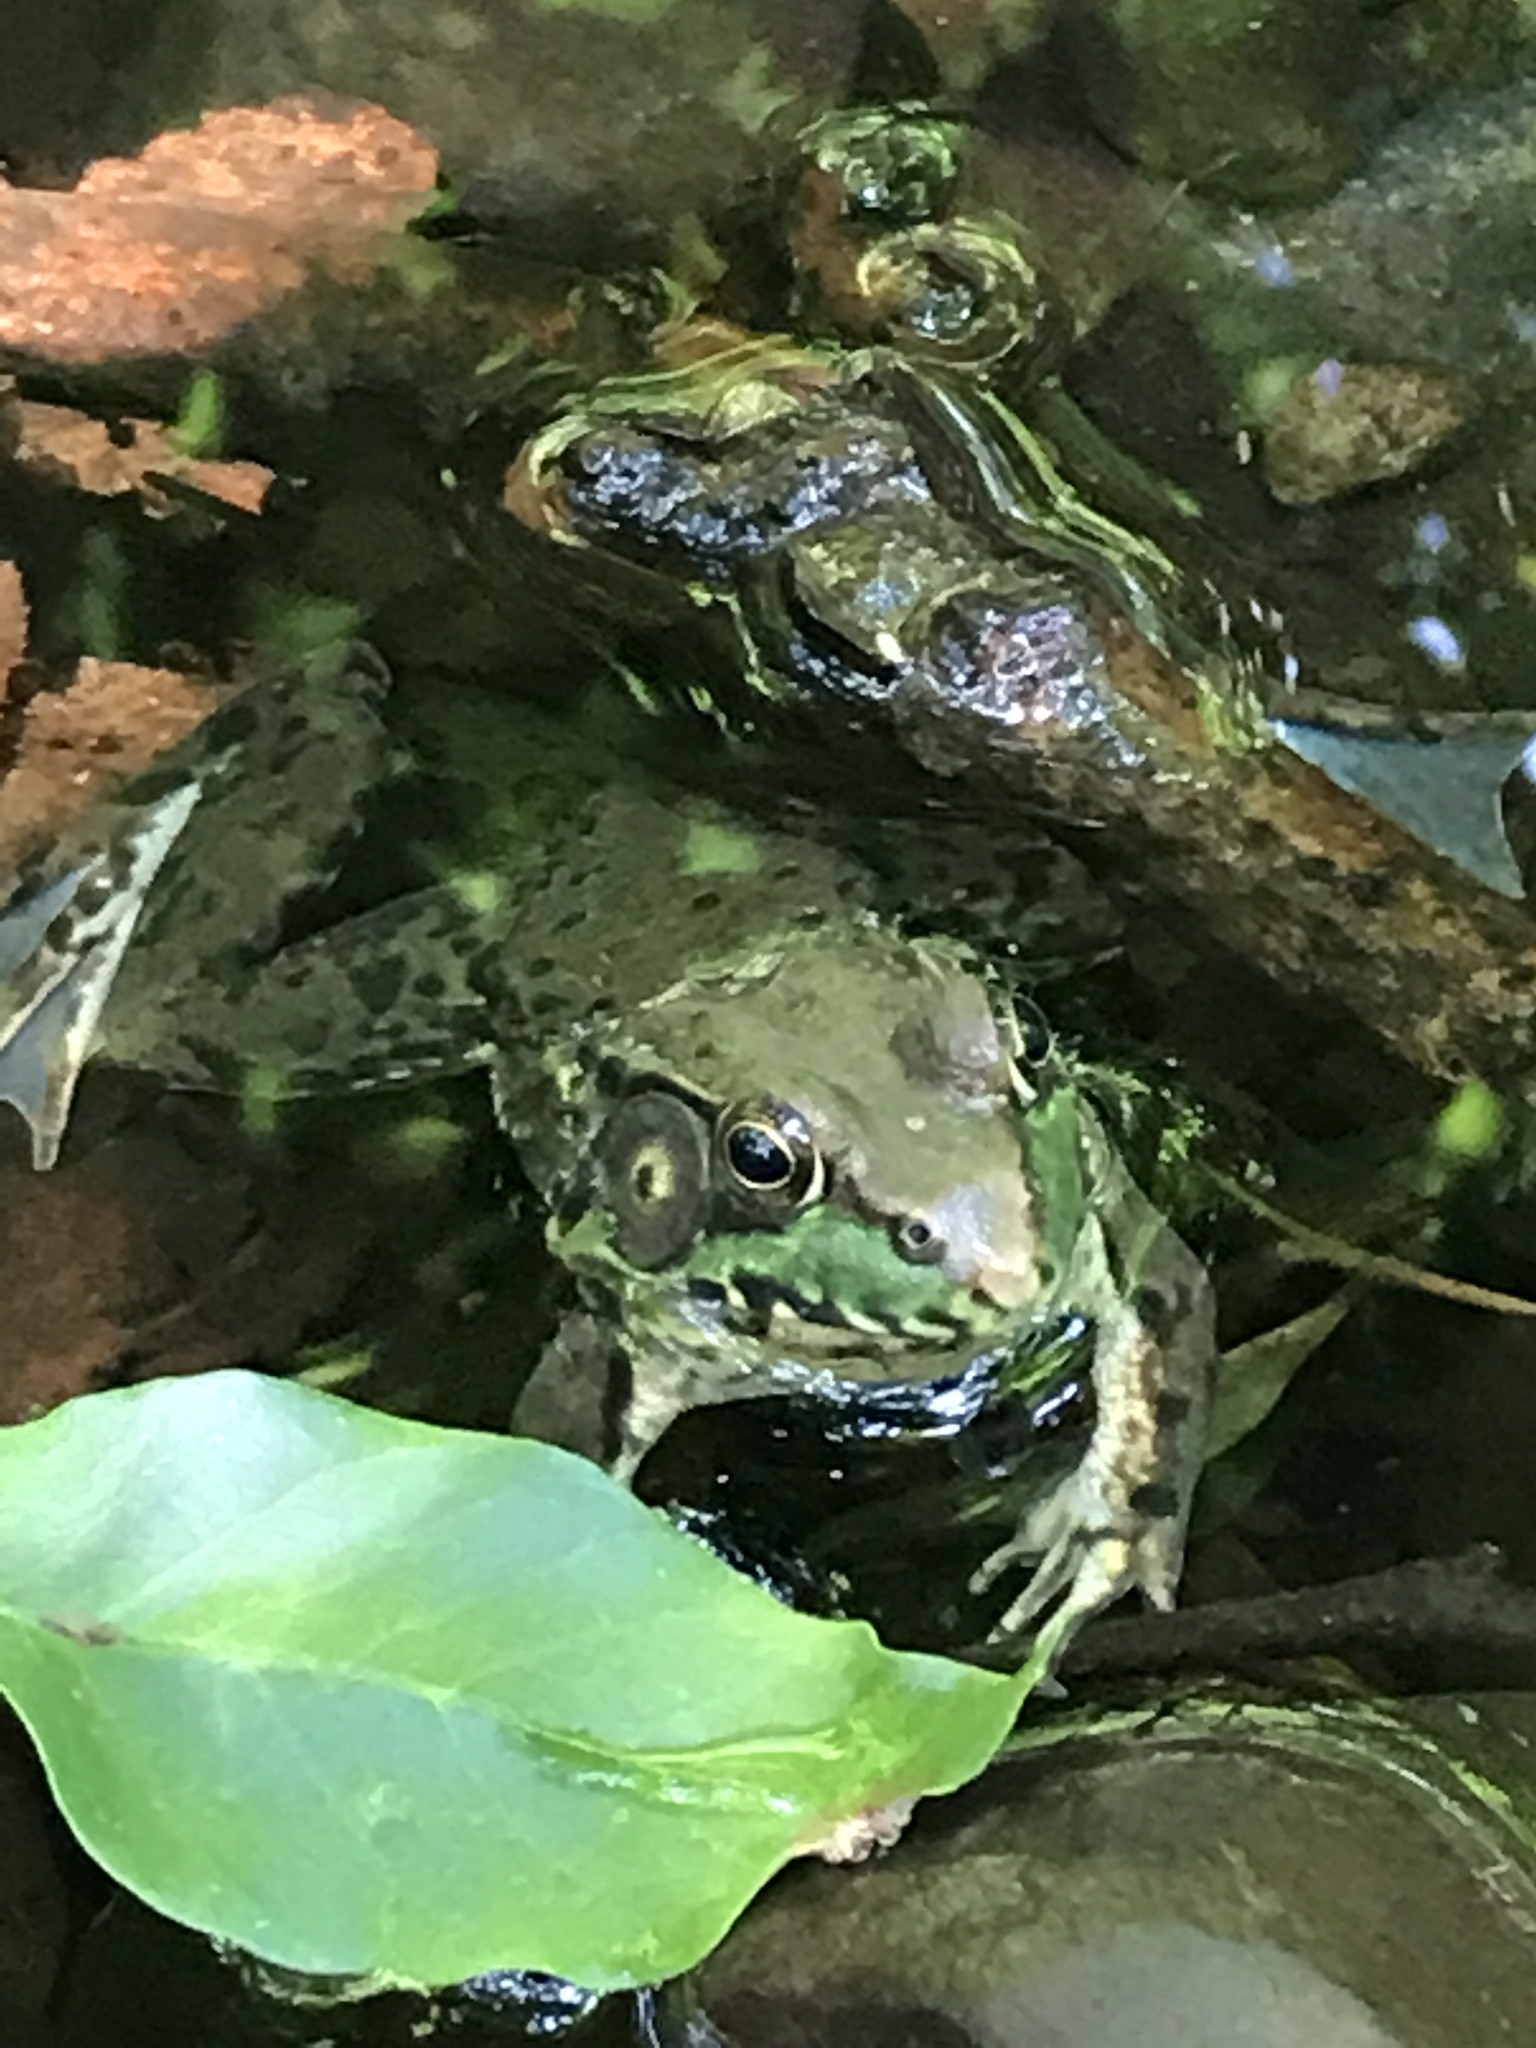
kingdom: Animalia
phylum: Chordata
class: Amphibia
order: Anura
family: Ranidae
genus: Lithobates
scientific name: Lithobates clamitans
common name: Green frog
